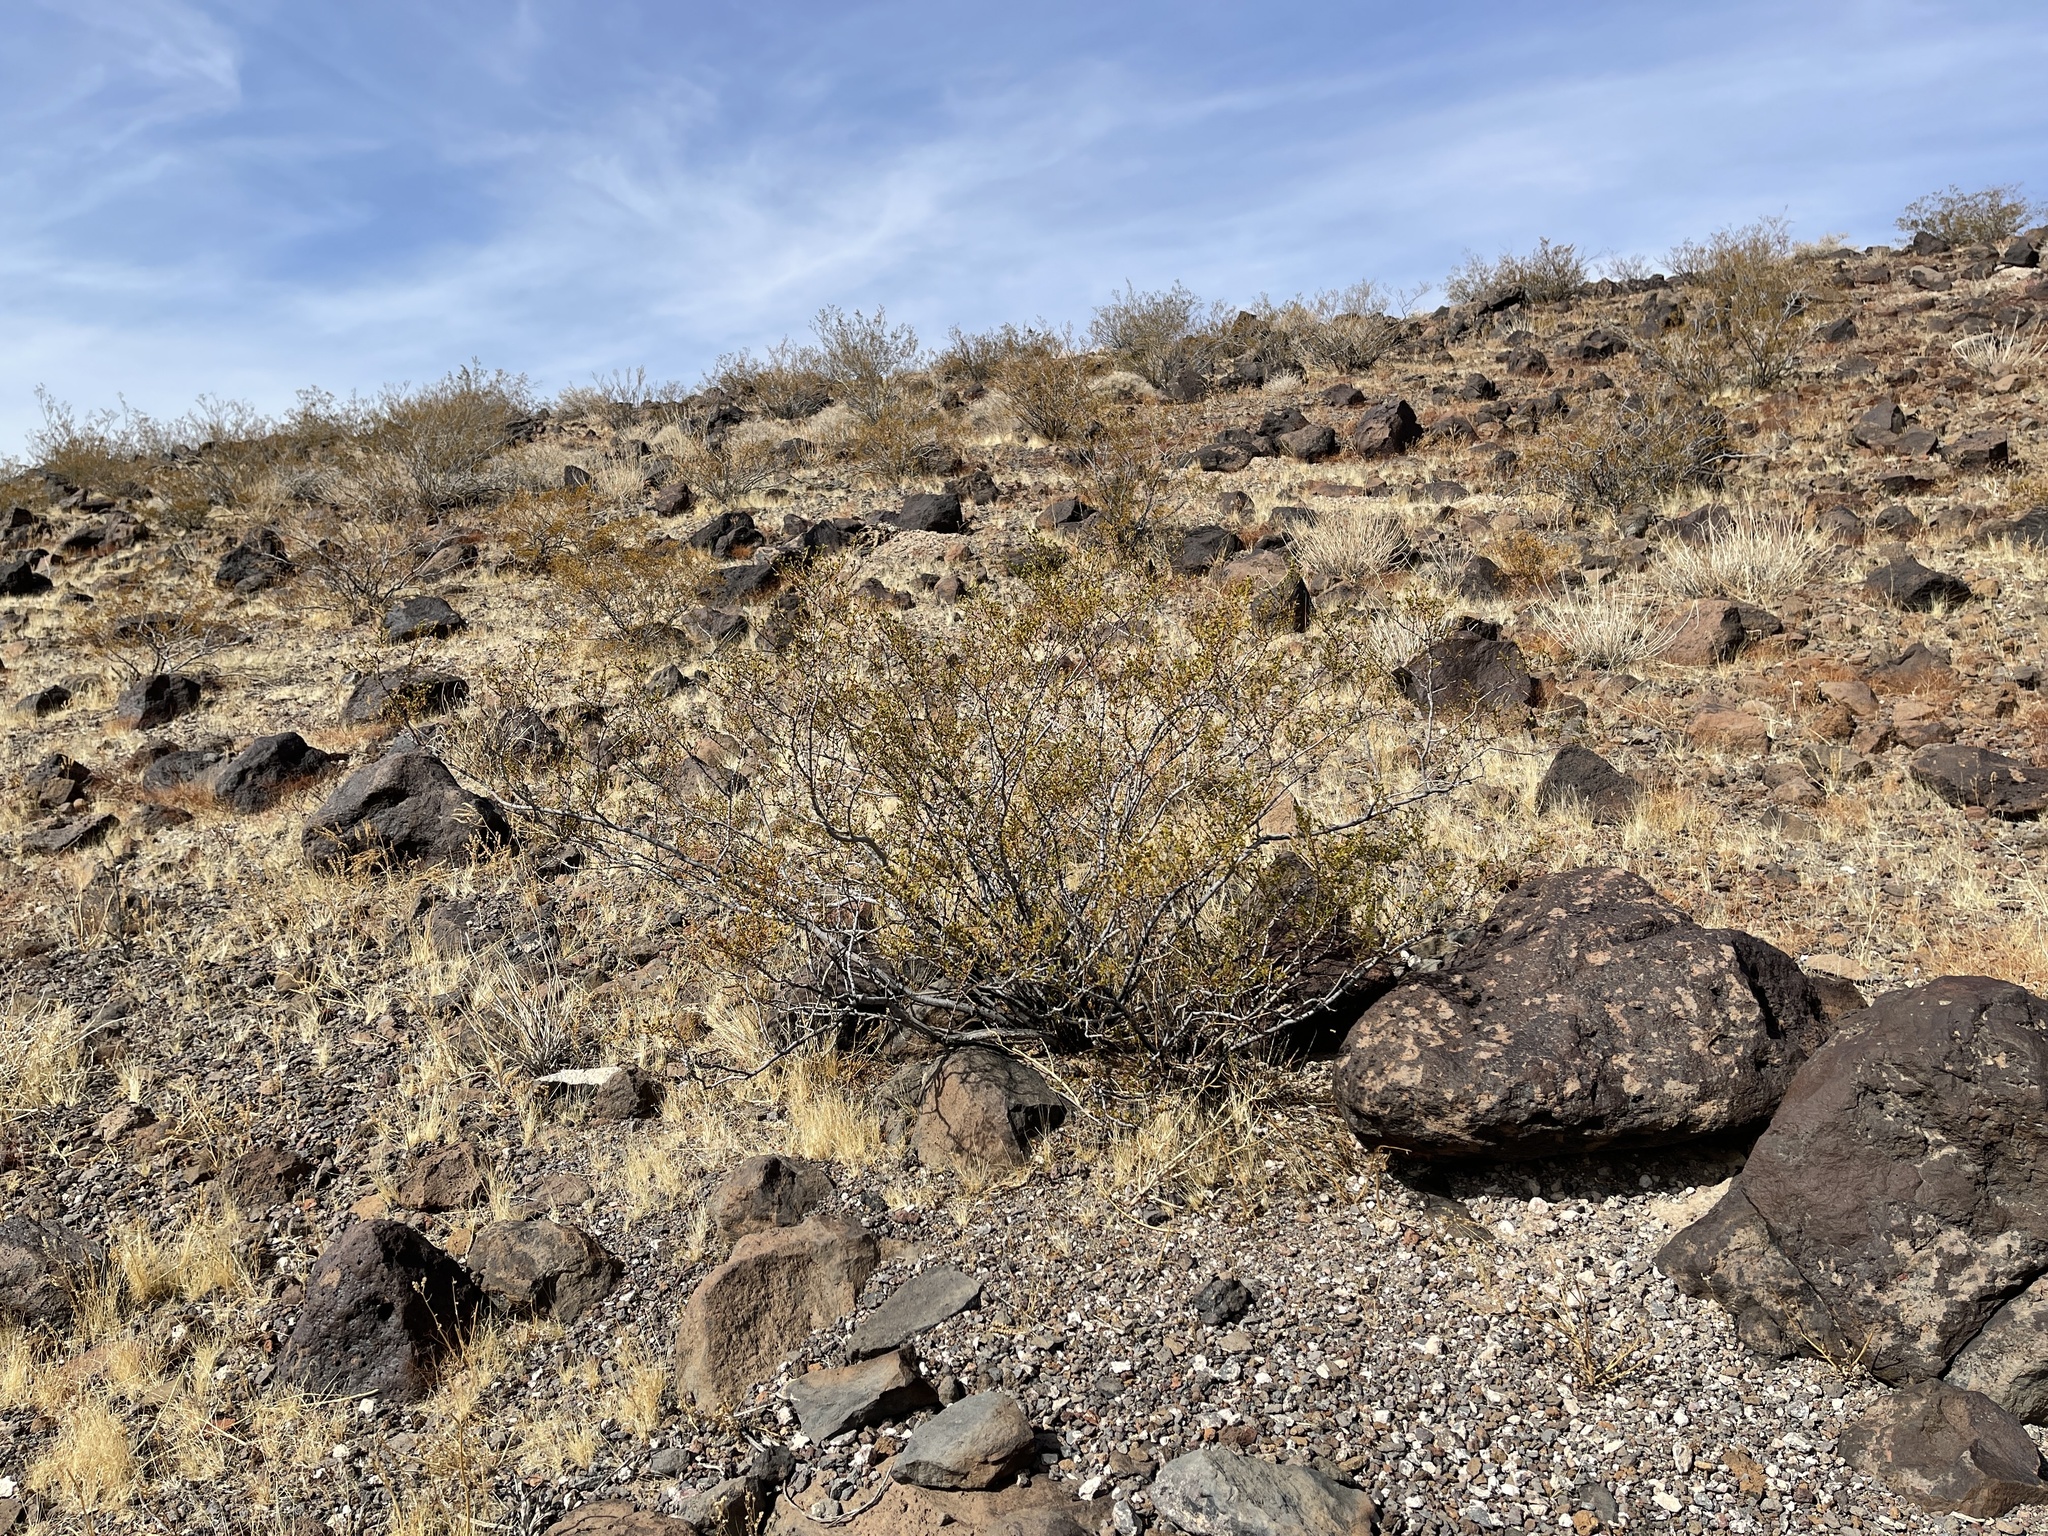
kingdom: Plantae
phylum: Tracheophyta
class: Magnoliopsida
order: Zygophyllales
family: Zygophyllaceae
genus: Larrea
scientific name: Larrea tridentata
